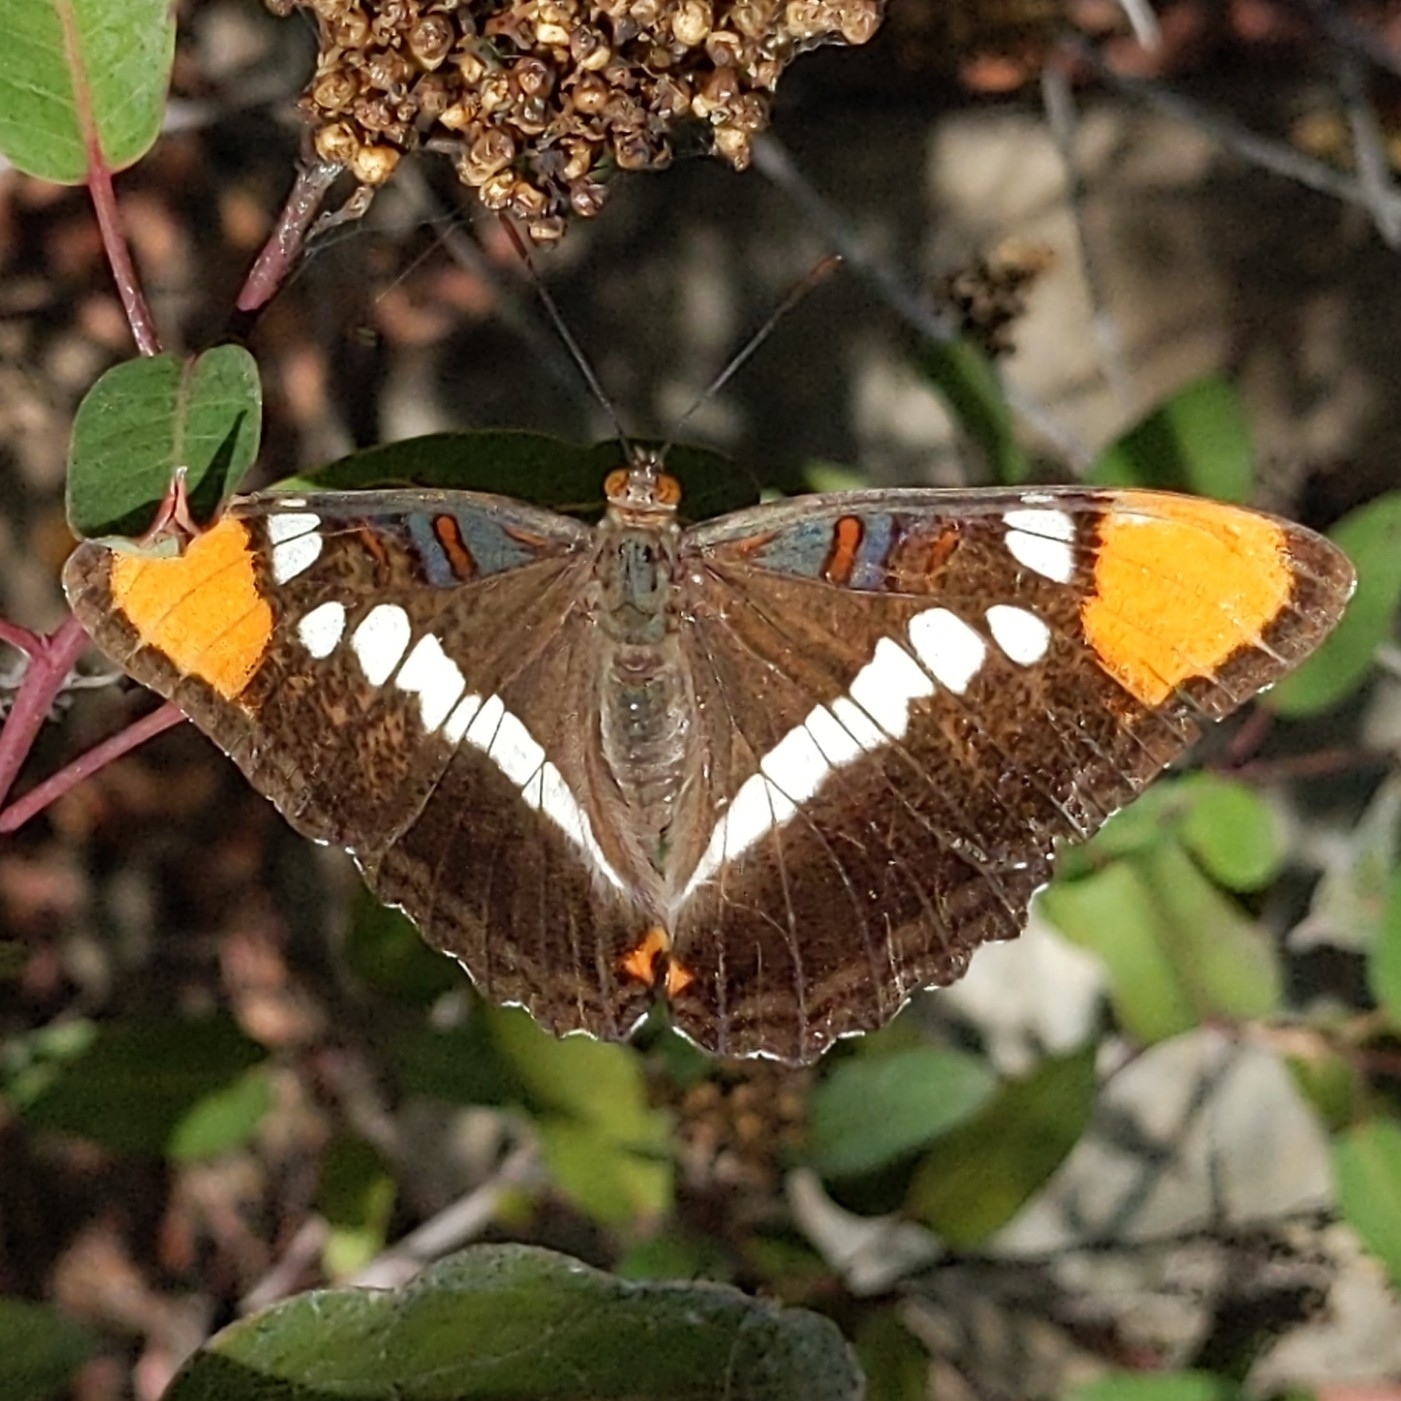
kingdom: Animalia
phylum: Arthropoda
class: Insecta
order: Lepidoptera
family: Nymphalidae
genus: Limenitis
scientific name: Limenitis bredowii
